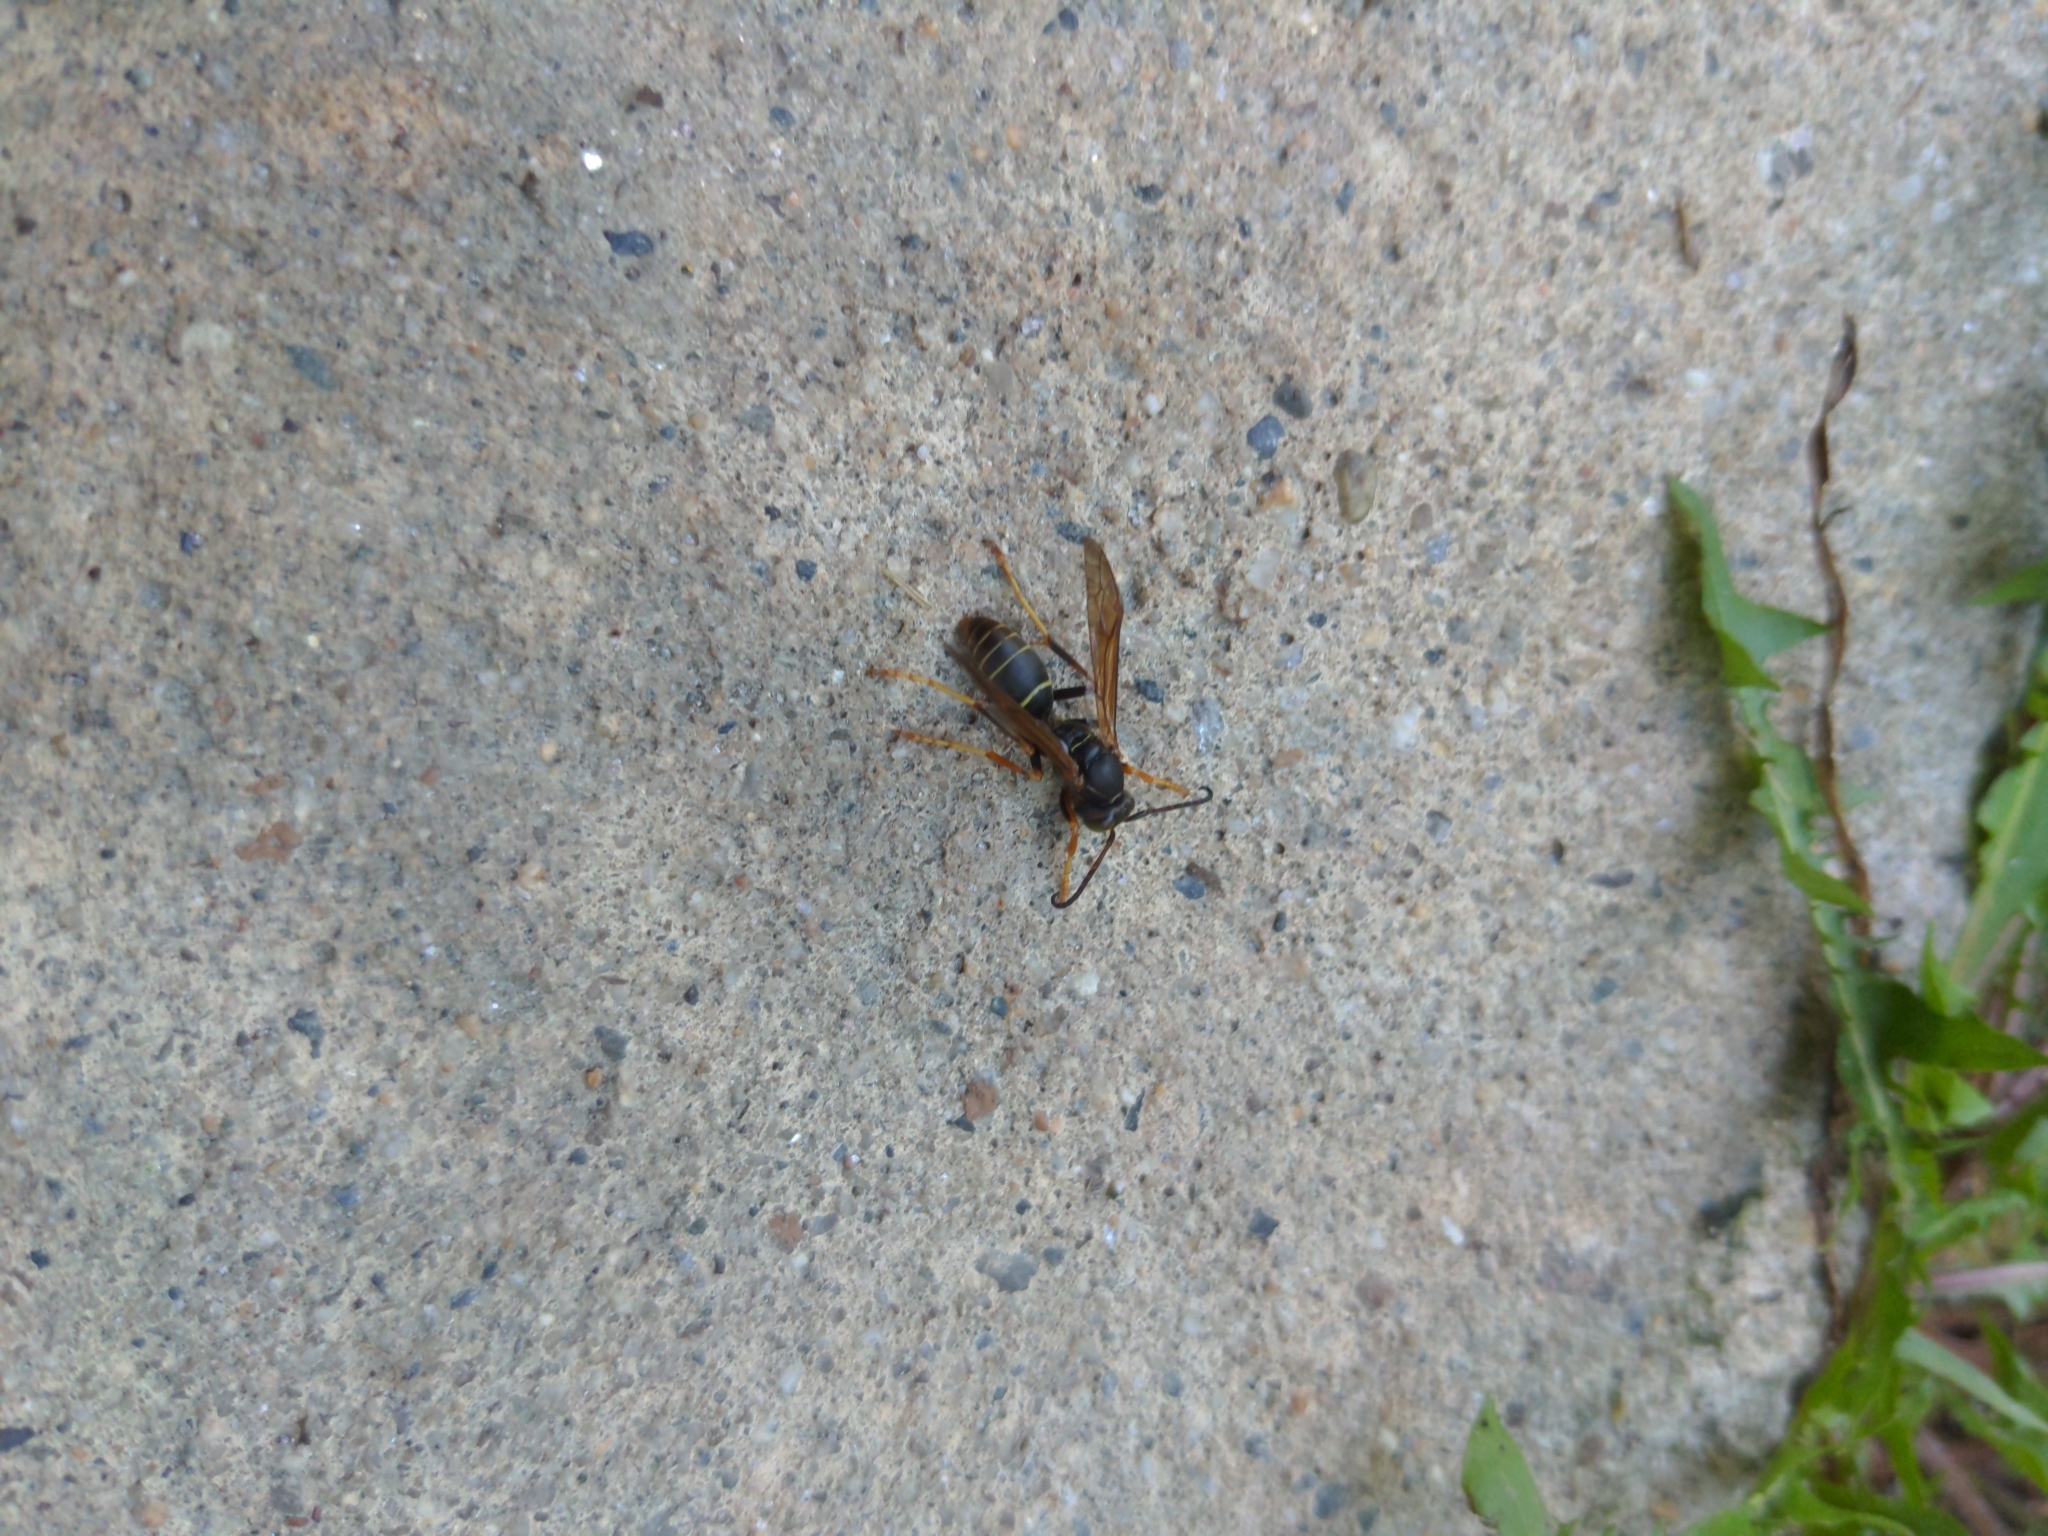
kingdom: Animalia
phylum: Arthropoda
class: Insecta
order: Hymenoptera
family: Eumenidae
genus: Polistes
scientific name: Polistes fuscatus
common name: Dark paper wasp
